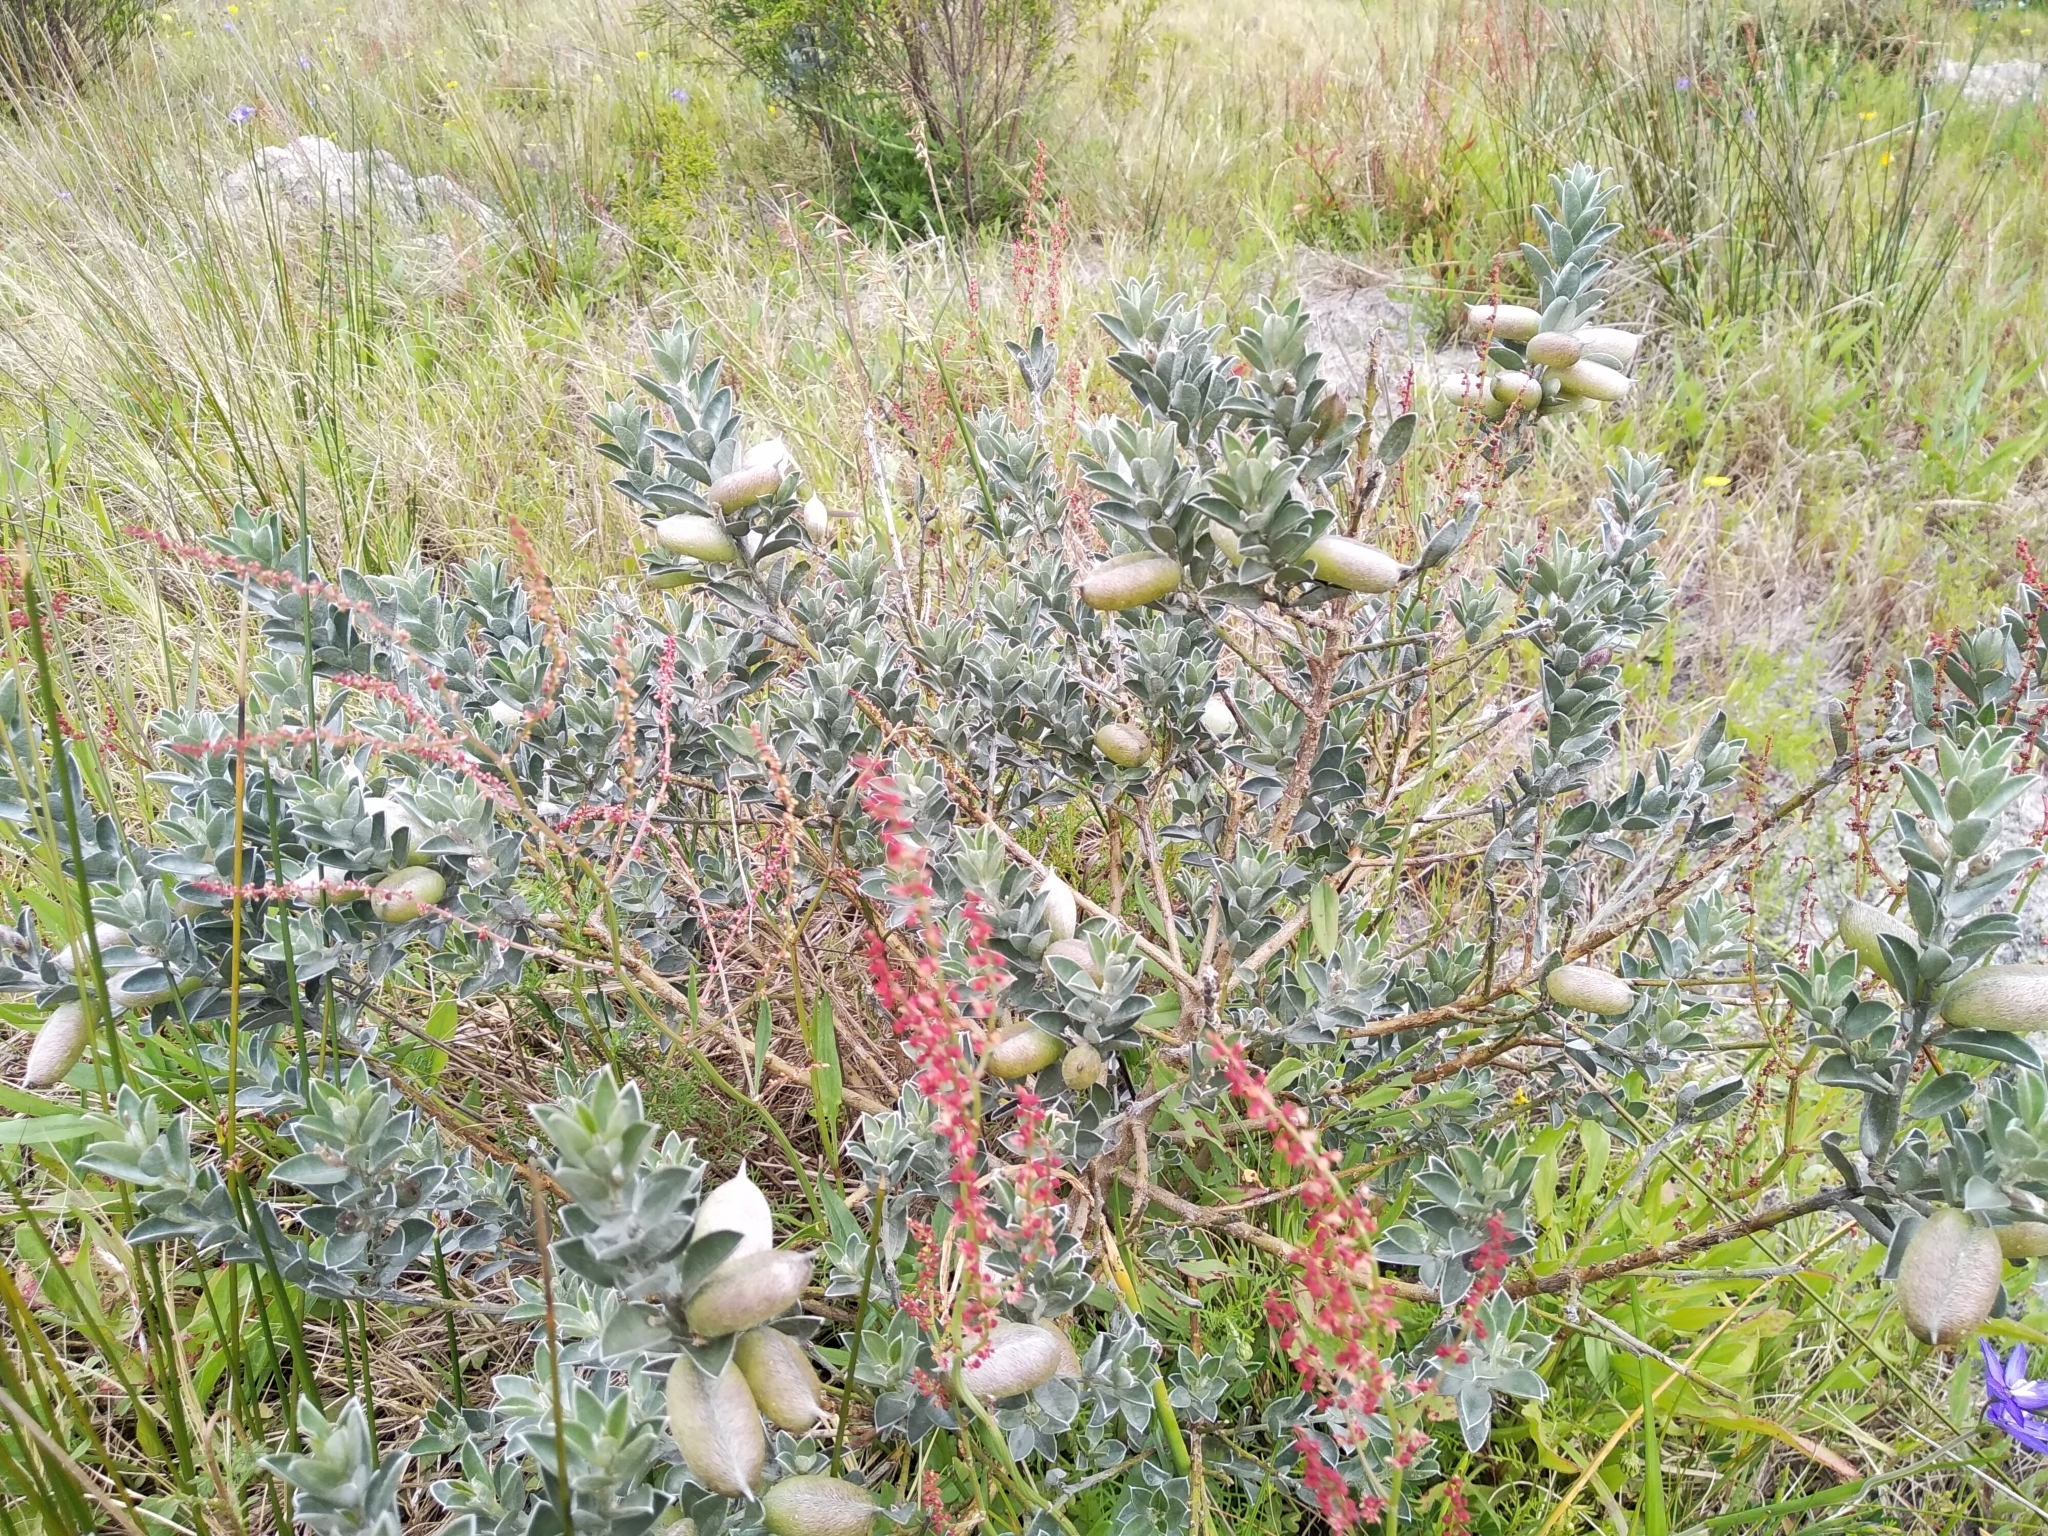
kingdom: Plantae
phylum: Tracheophyta
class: Magnoliopsida
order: Fabales
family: Fabaceae
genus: Podalyria
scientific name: Podalyria sericea
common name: Silver podalyria
